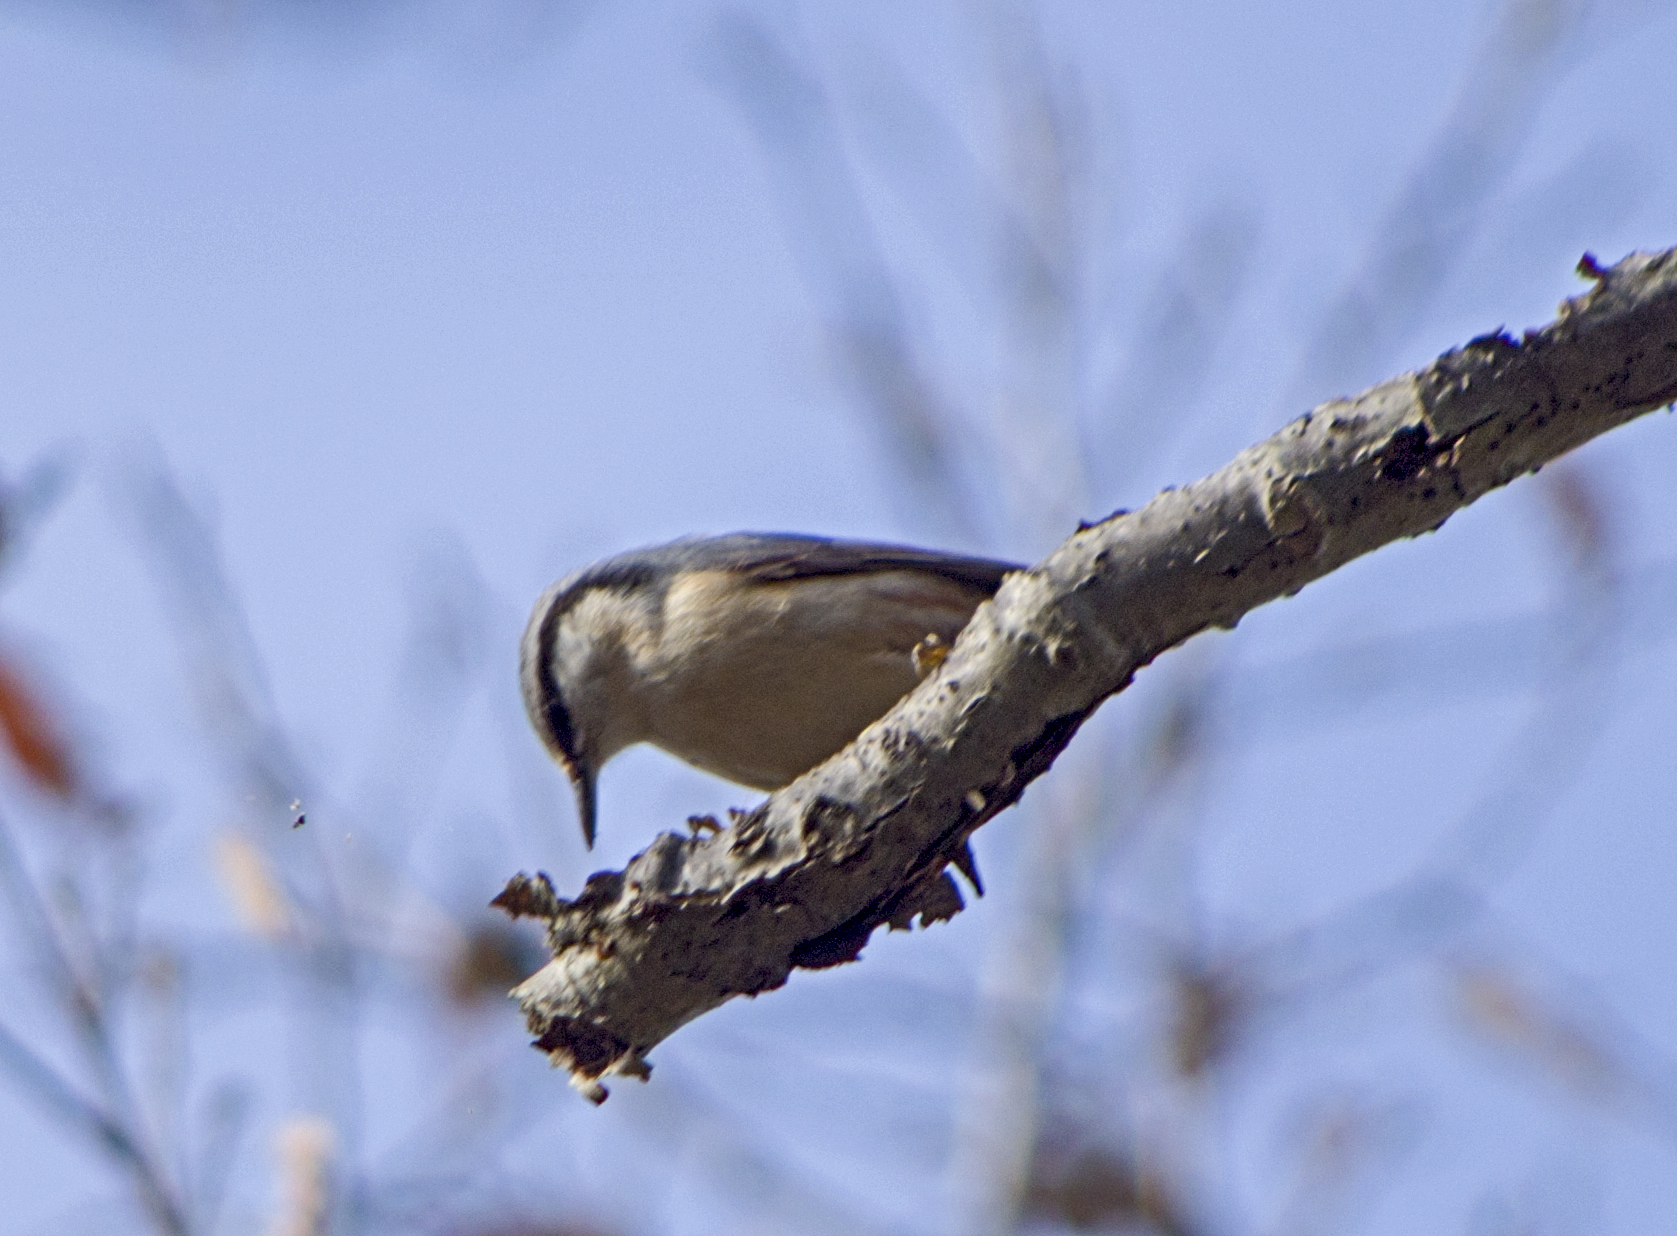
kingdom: Animalia
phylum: Chordata
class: Aves
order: Passeriformes
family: Sittidae
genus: Sitta
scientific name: Sitta europaea
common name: Eurasian nuthatch
